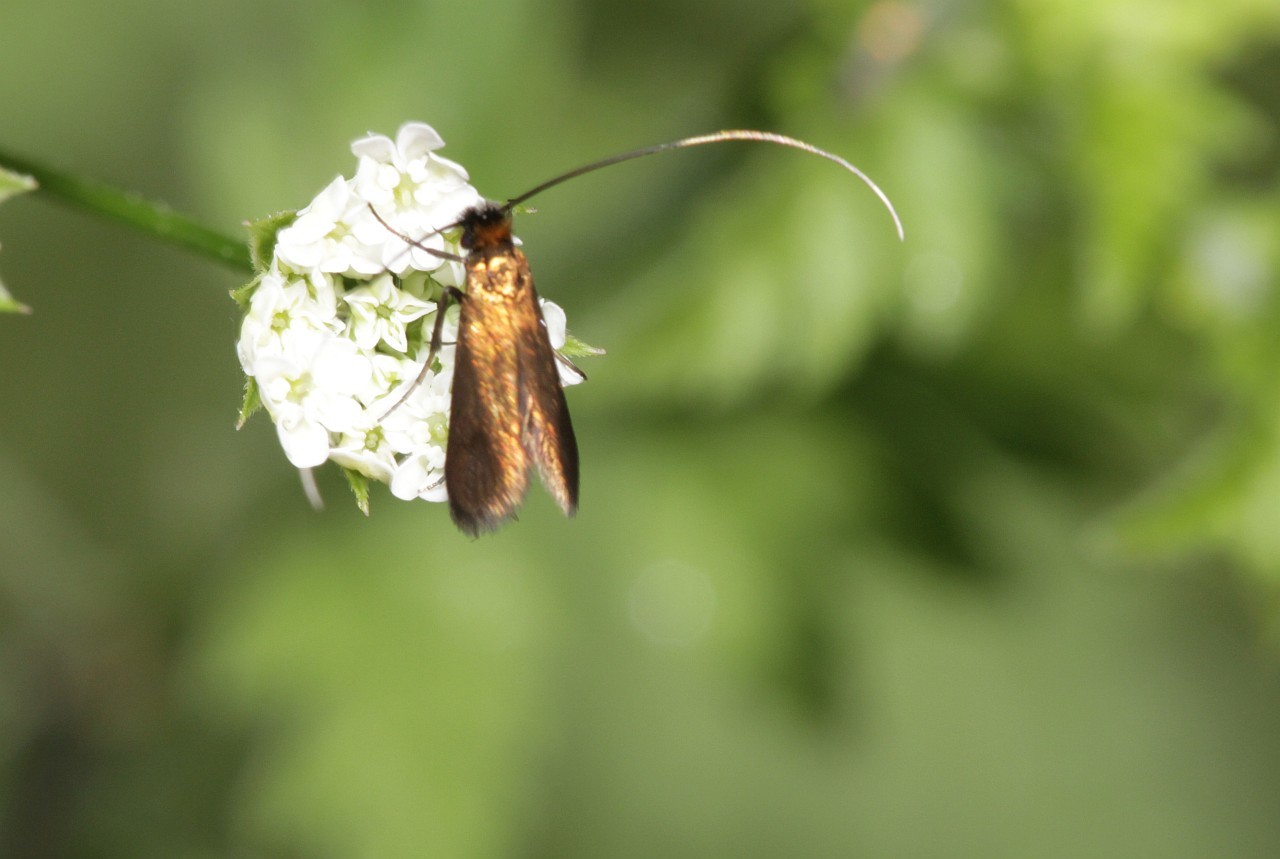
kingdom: Animalia
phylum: Arthropoda
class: Insecta
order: Lepidoptera
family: Adelidae
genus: Cauchas
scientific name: Cauchas rufimitrella
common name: Meadow long-horn
